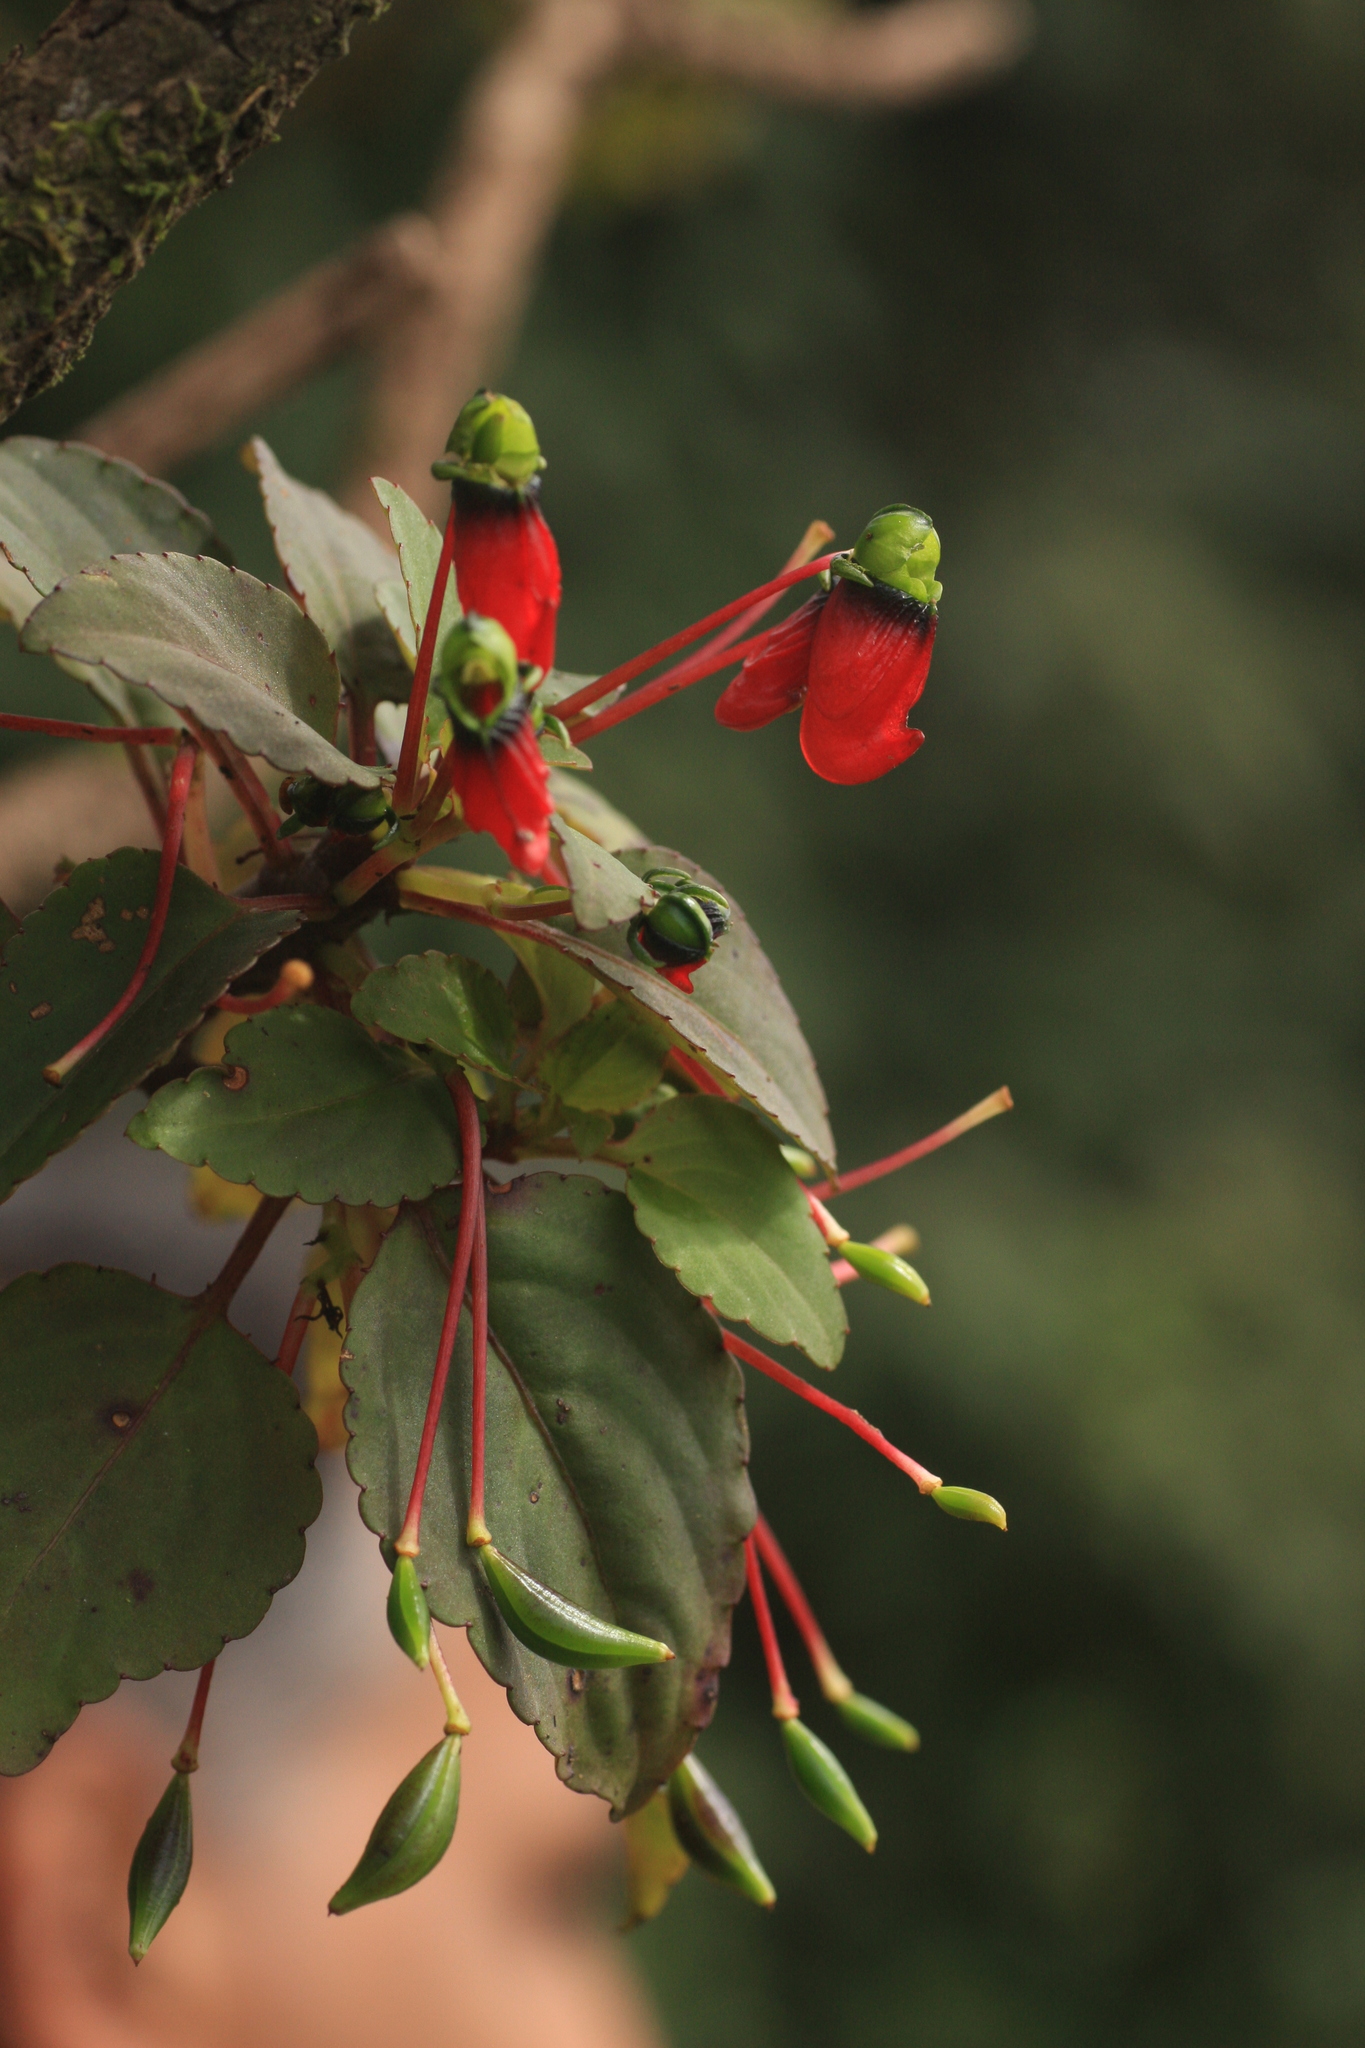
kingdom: Plantae
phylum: Tracheophyta
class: Magnoliopsida
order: Ericales
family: Balsaminaceae
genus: Impatiens
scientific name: Impatiens parasitica
